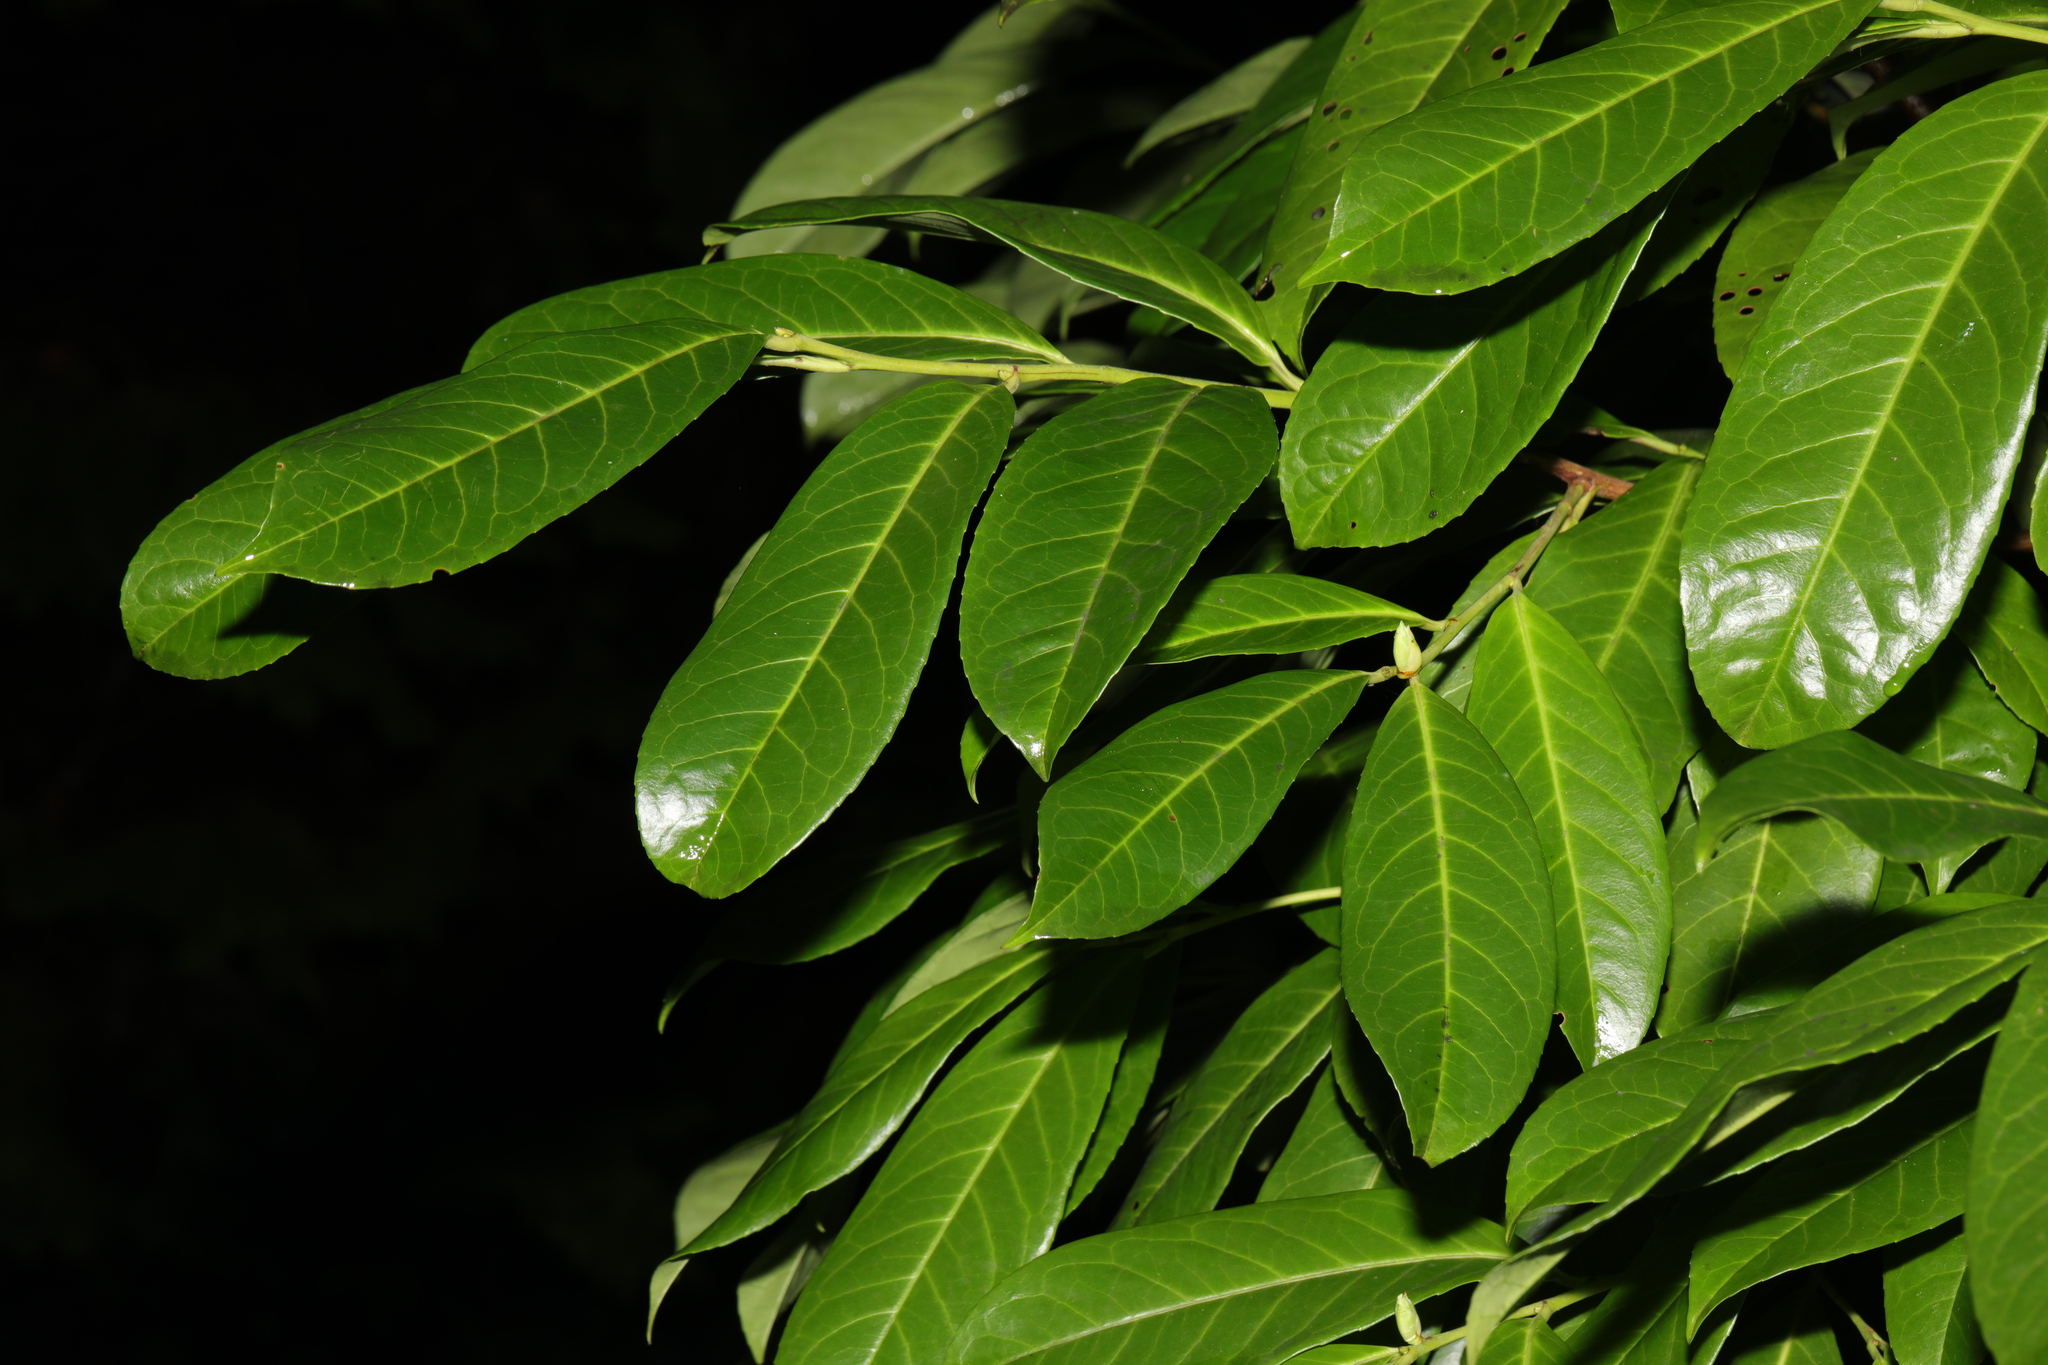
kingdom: Plantae
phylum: Tracheophyta
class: Magnoliopsida
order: Rosales
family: Rosaceae
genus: Prunus
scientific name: Prunus laurocerasus
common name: Cherry laurel
